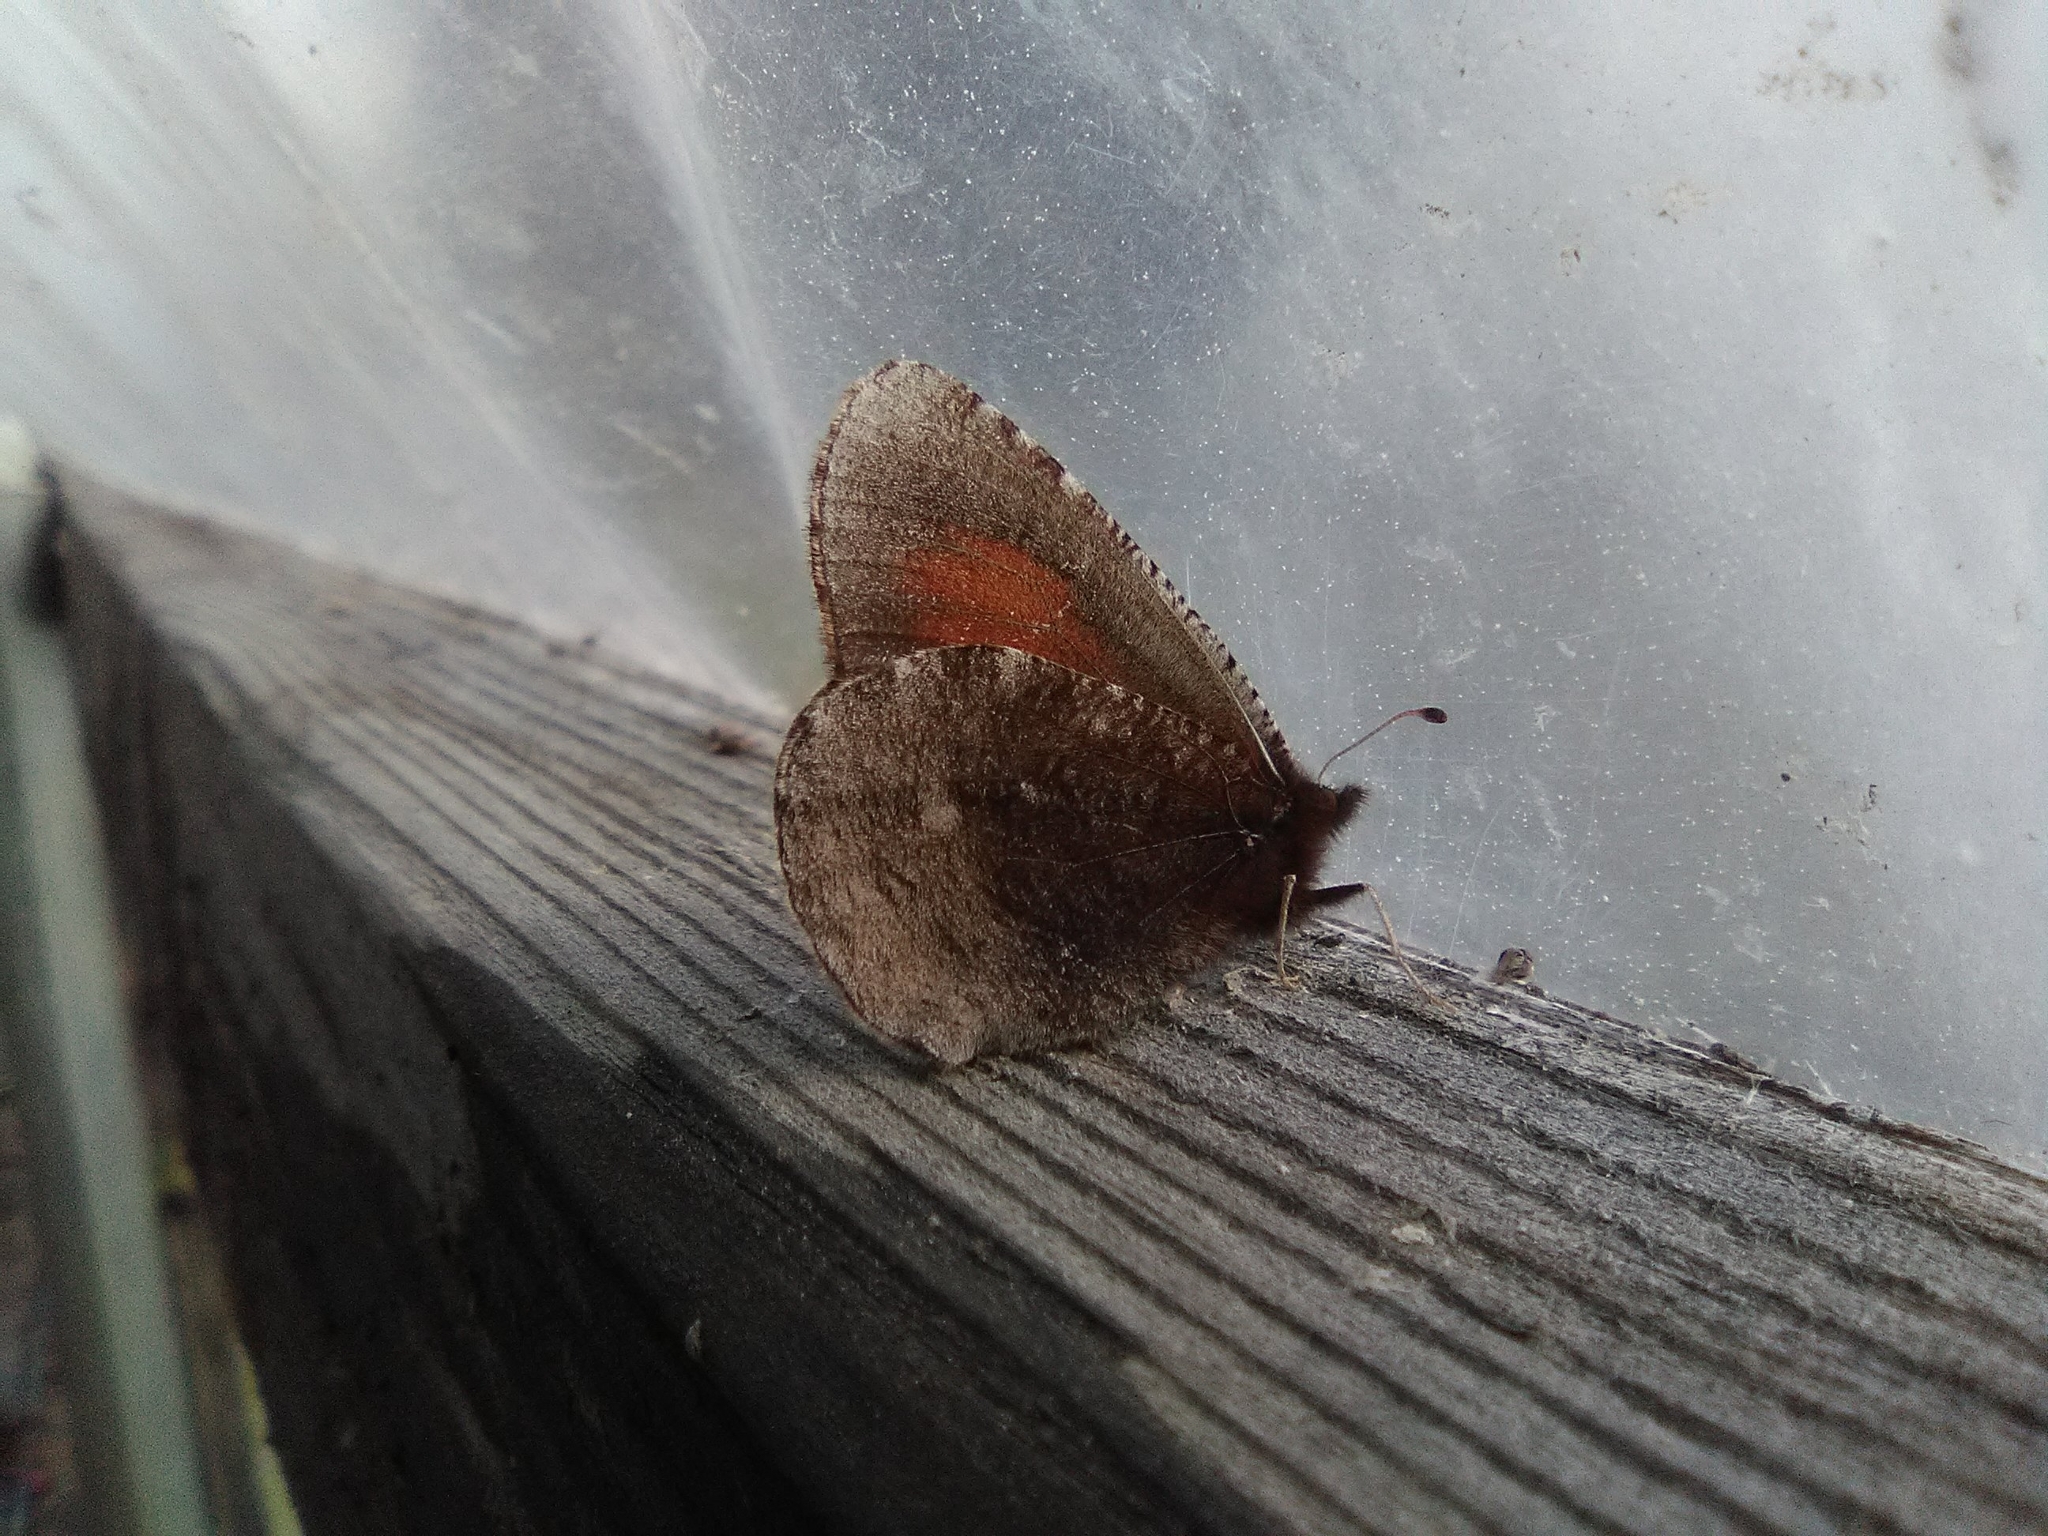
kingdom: Animalia
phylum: Arthropoda
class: Insecta
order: Lepidoptera
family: Nymphalidae
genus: Erebia
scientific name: Erebia discoidalis
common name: Red-disked alpine
